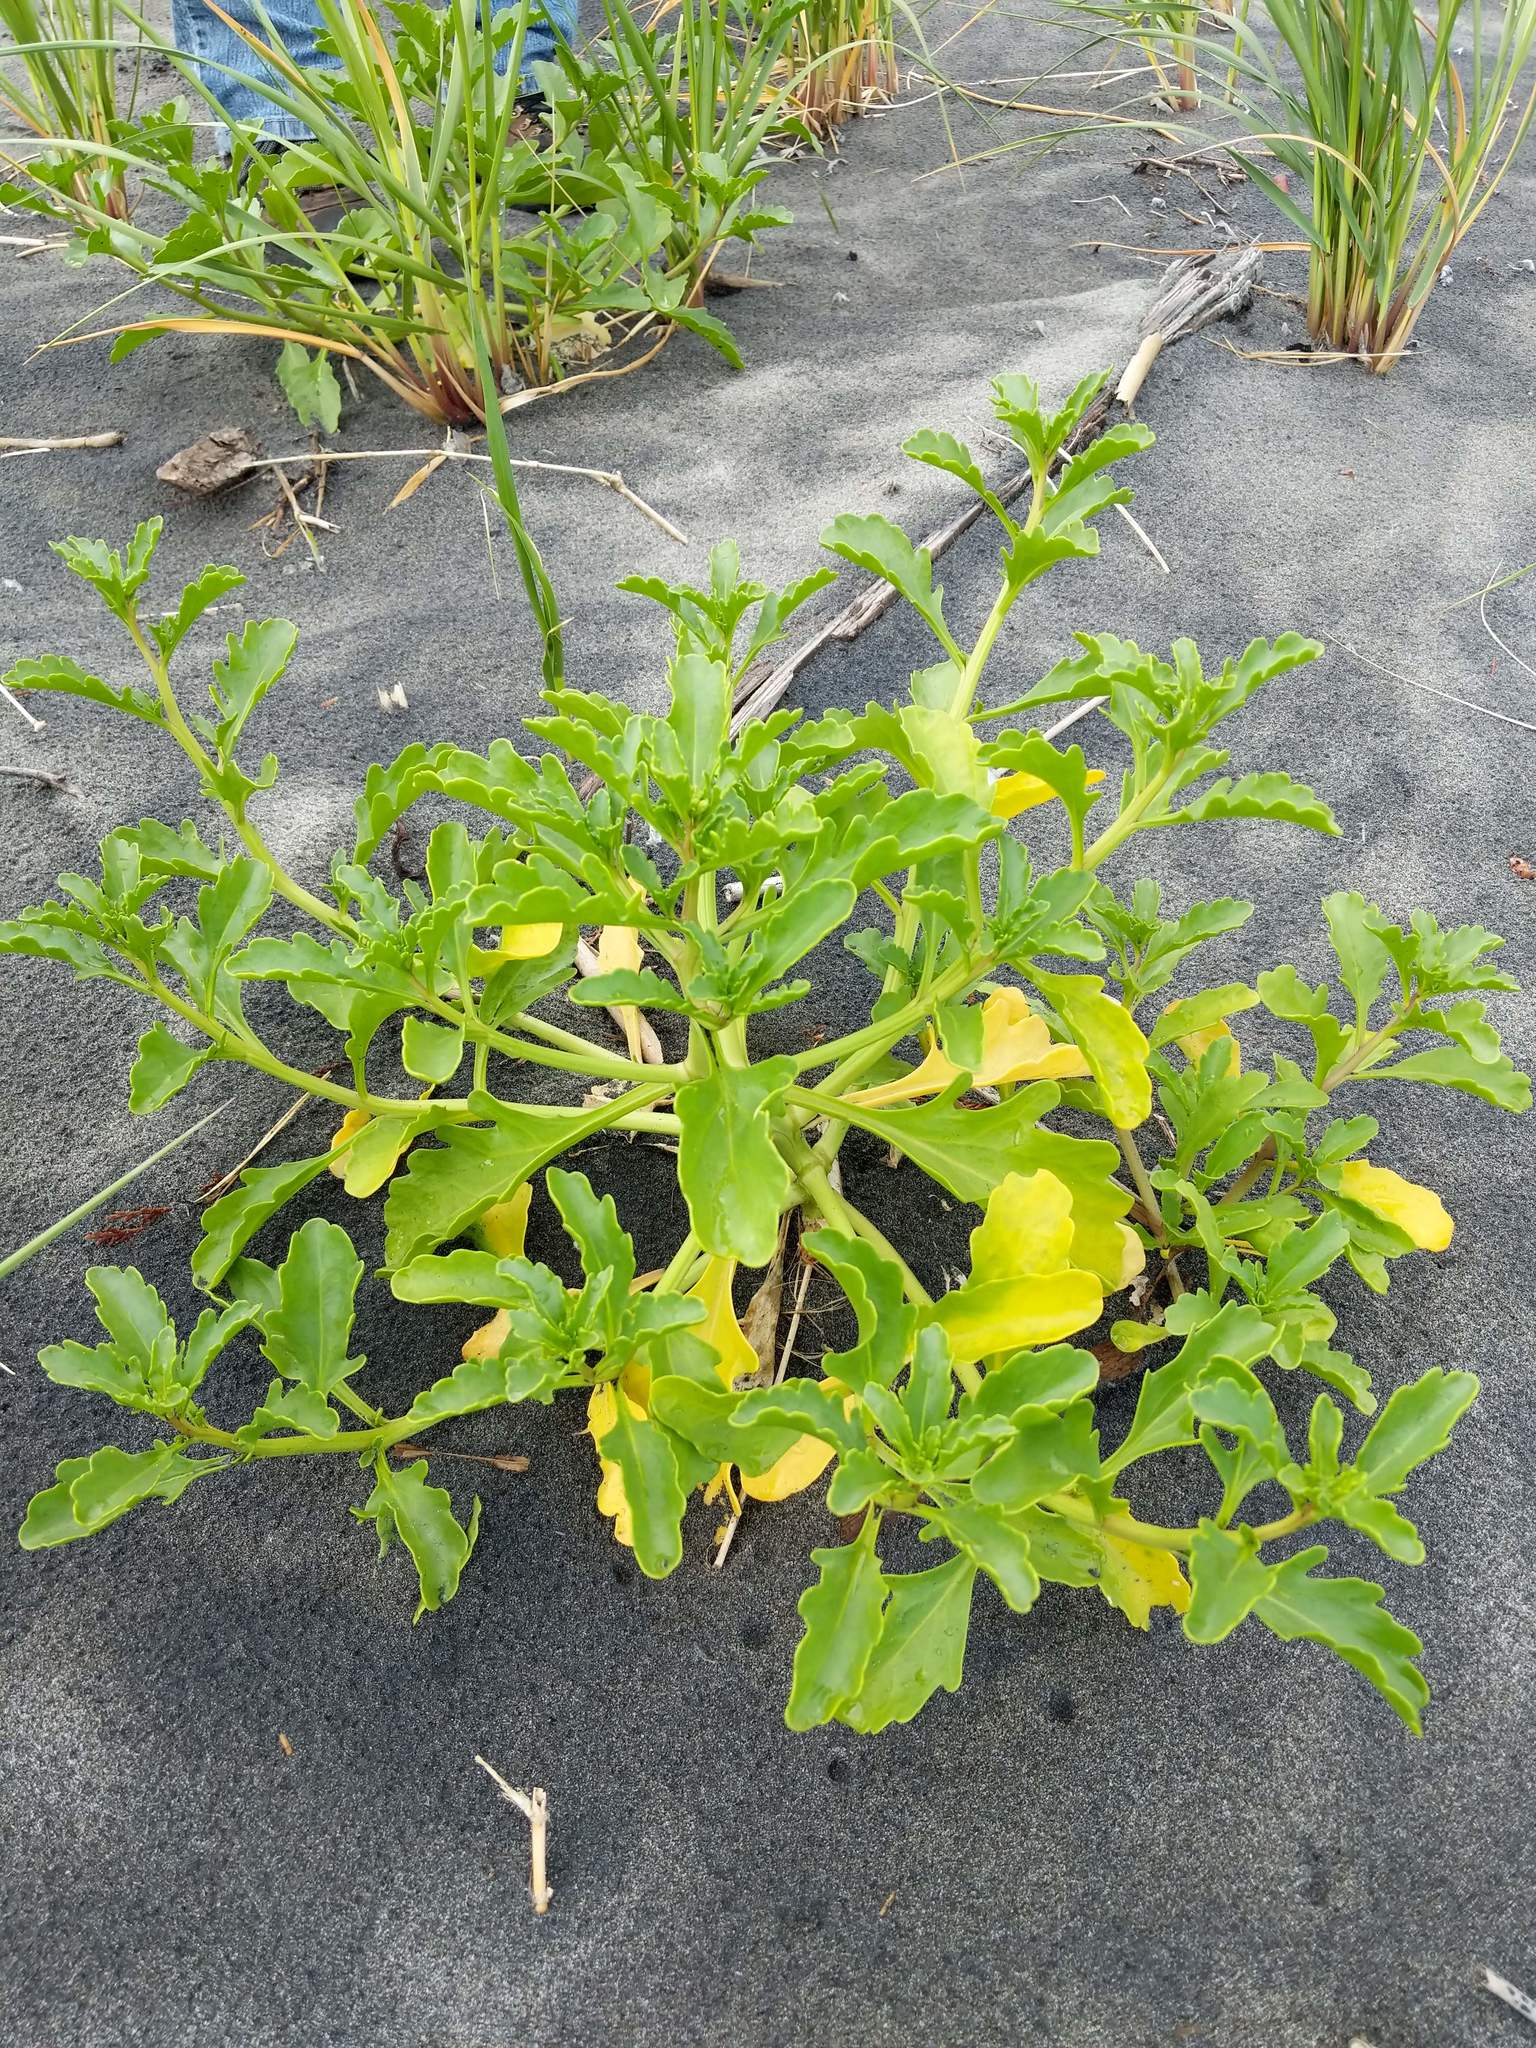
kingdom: Plantae
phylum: Tracheophyta
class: Magnoliopsida
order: Brassicales
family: Brassicaceae
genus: Cakile
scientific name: Cakile edentula
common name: American sea rocket
